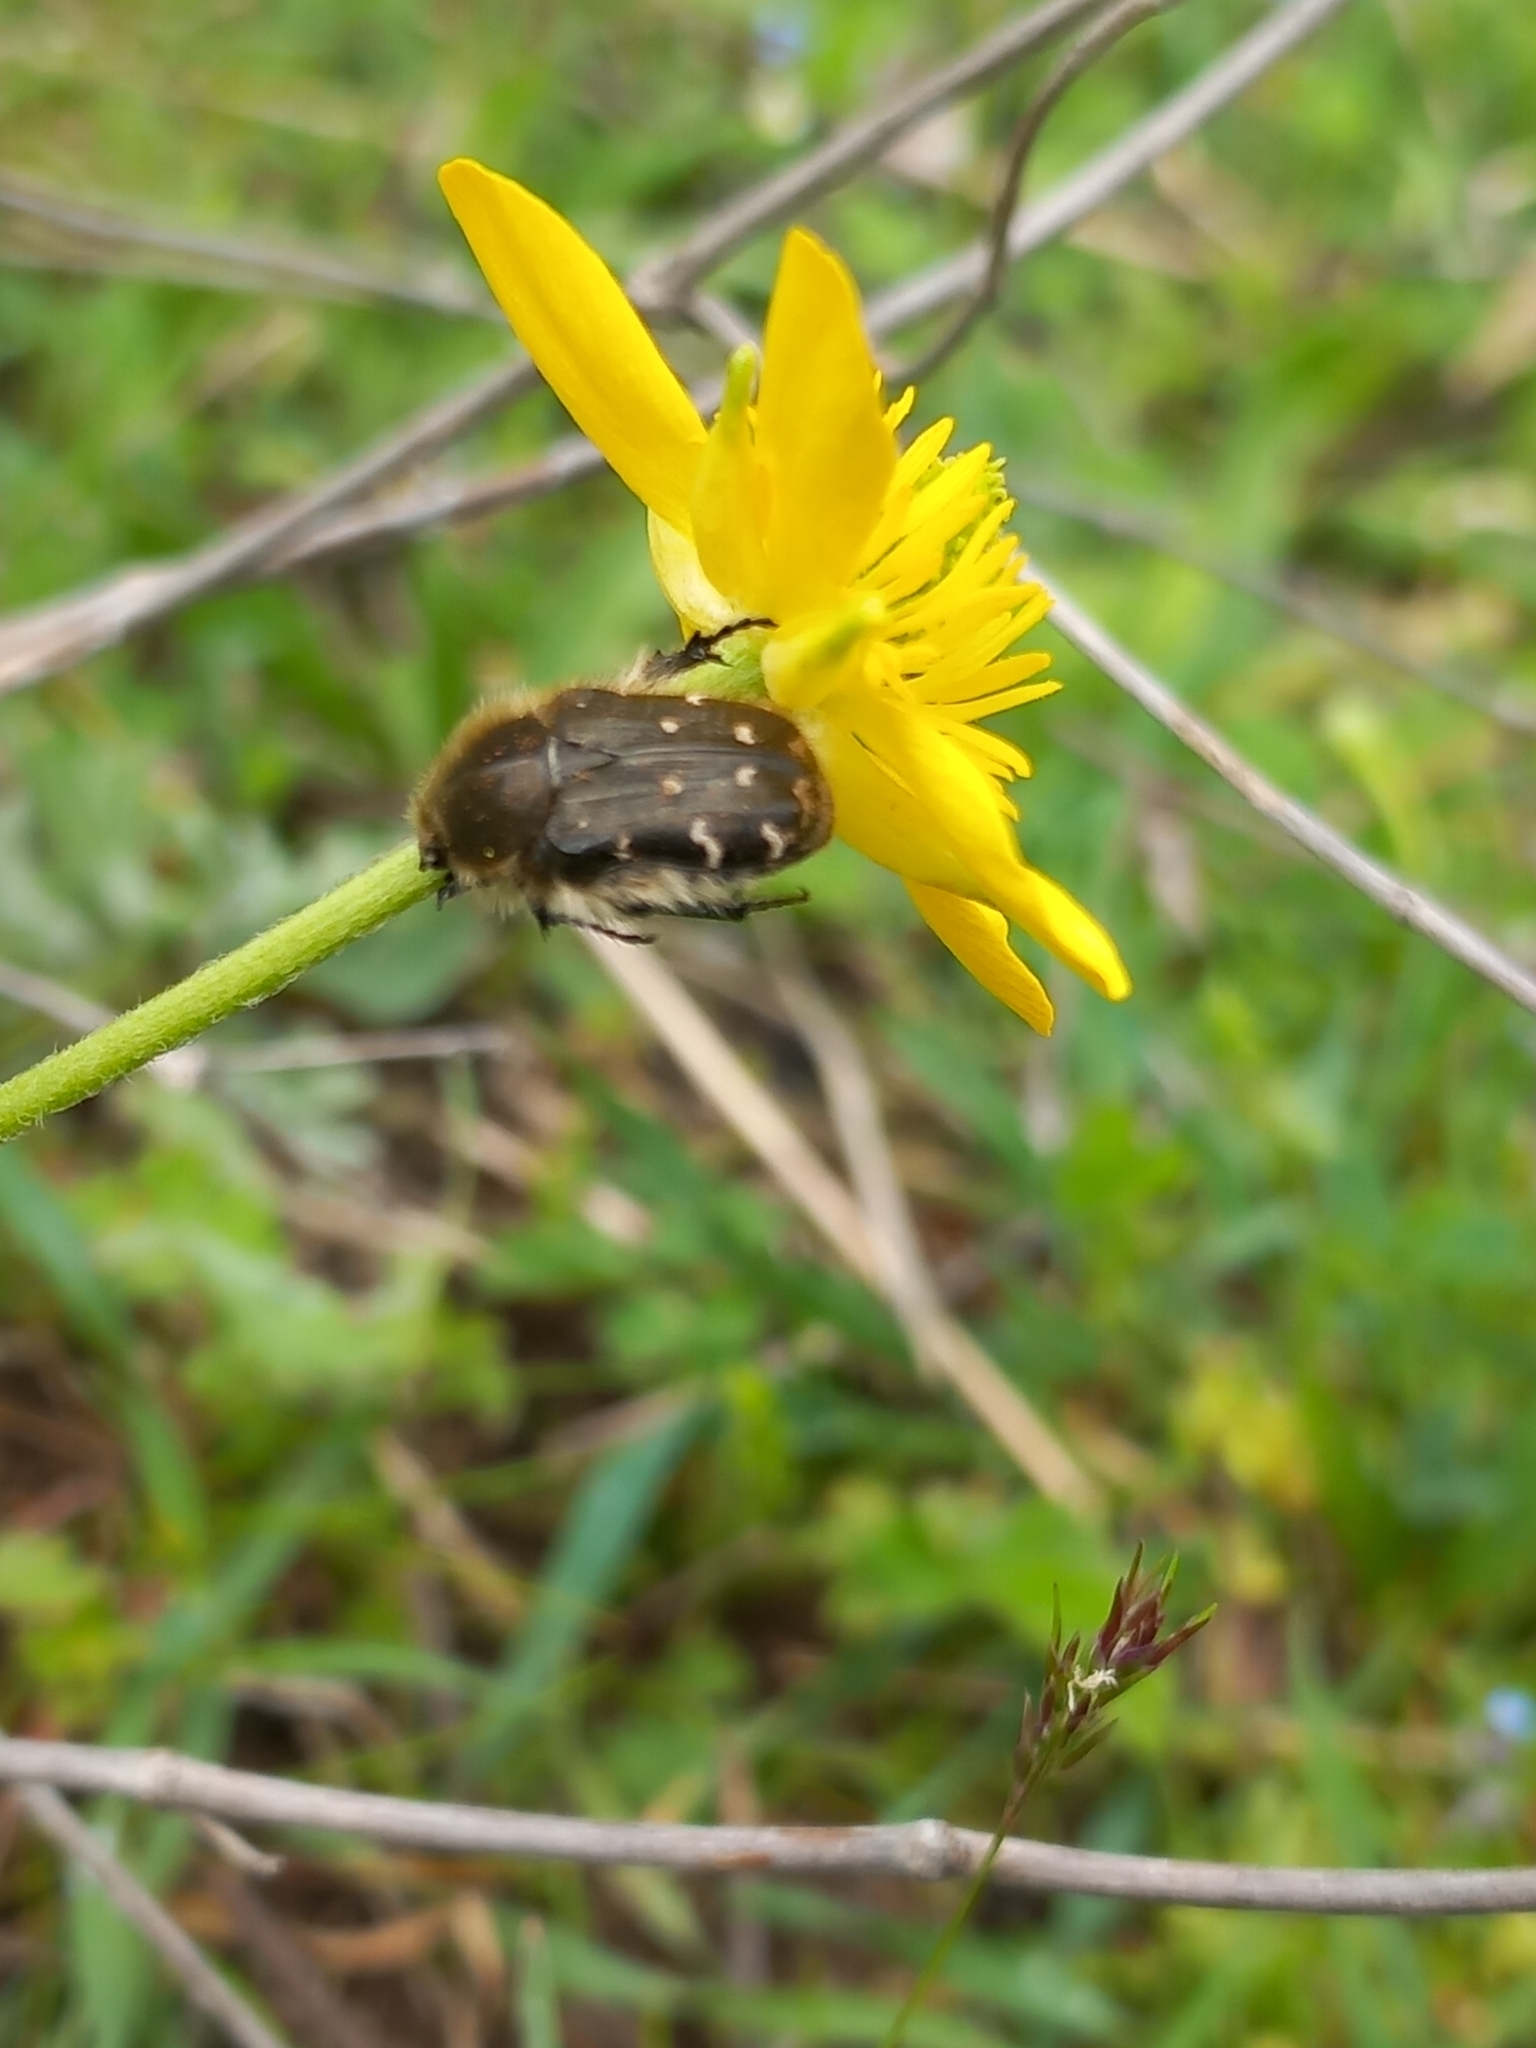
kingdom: Animalia
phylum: Arthropoda
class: Insecta
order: Coleoptera
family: Scarabaeidae
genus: Tropinota
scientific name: Tropinota hirta
